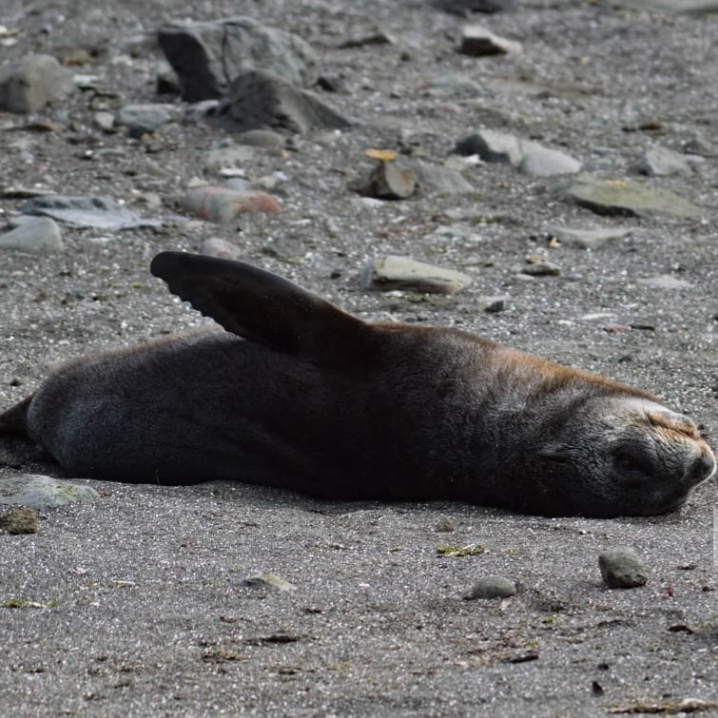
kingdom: Animalia
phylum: Chordata
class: Mammalia
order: Carnivora
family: Otariidae
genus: Arctocephalus
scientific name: Arctocephalus gazella
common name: Antarctic fur seal
